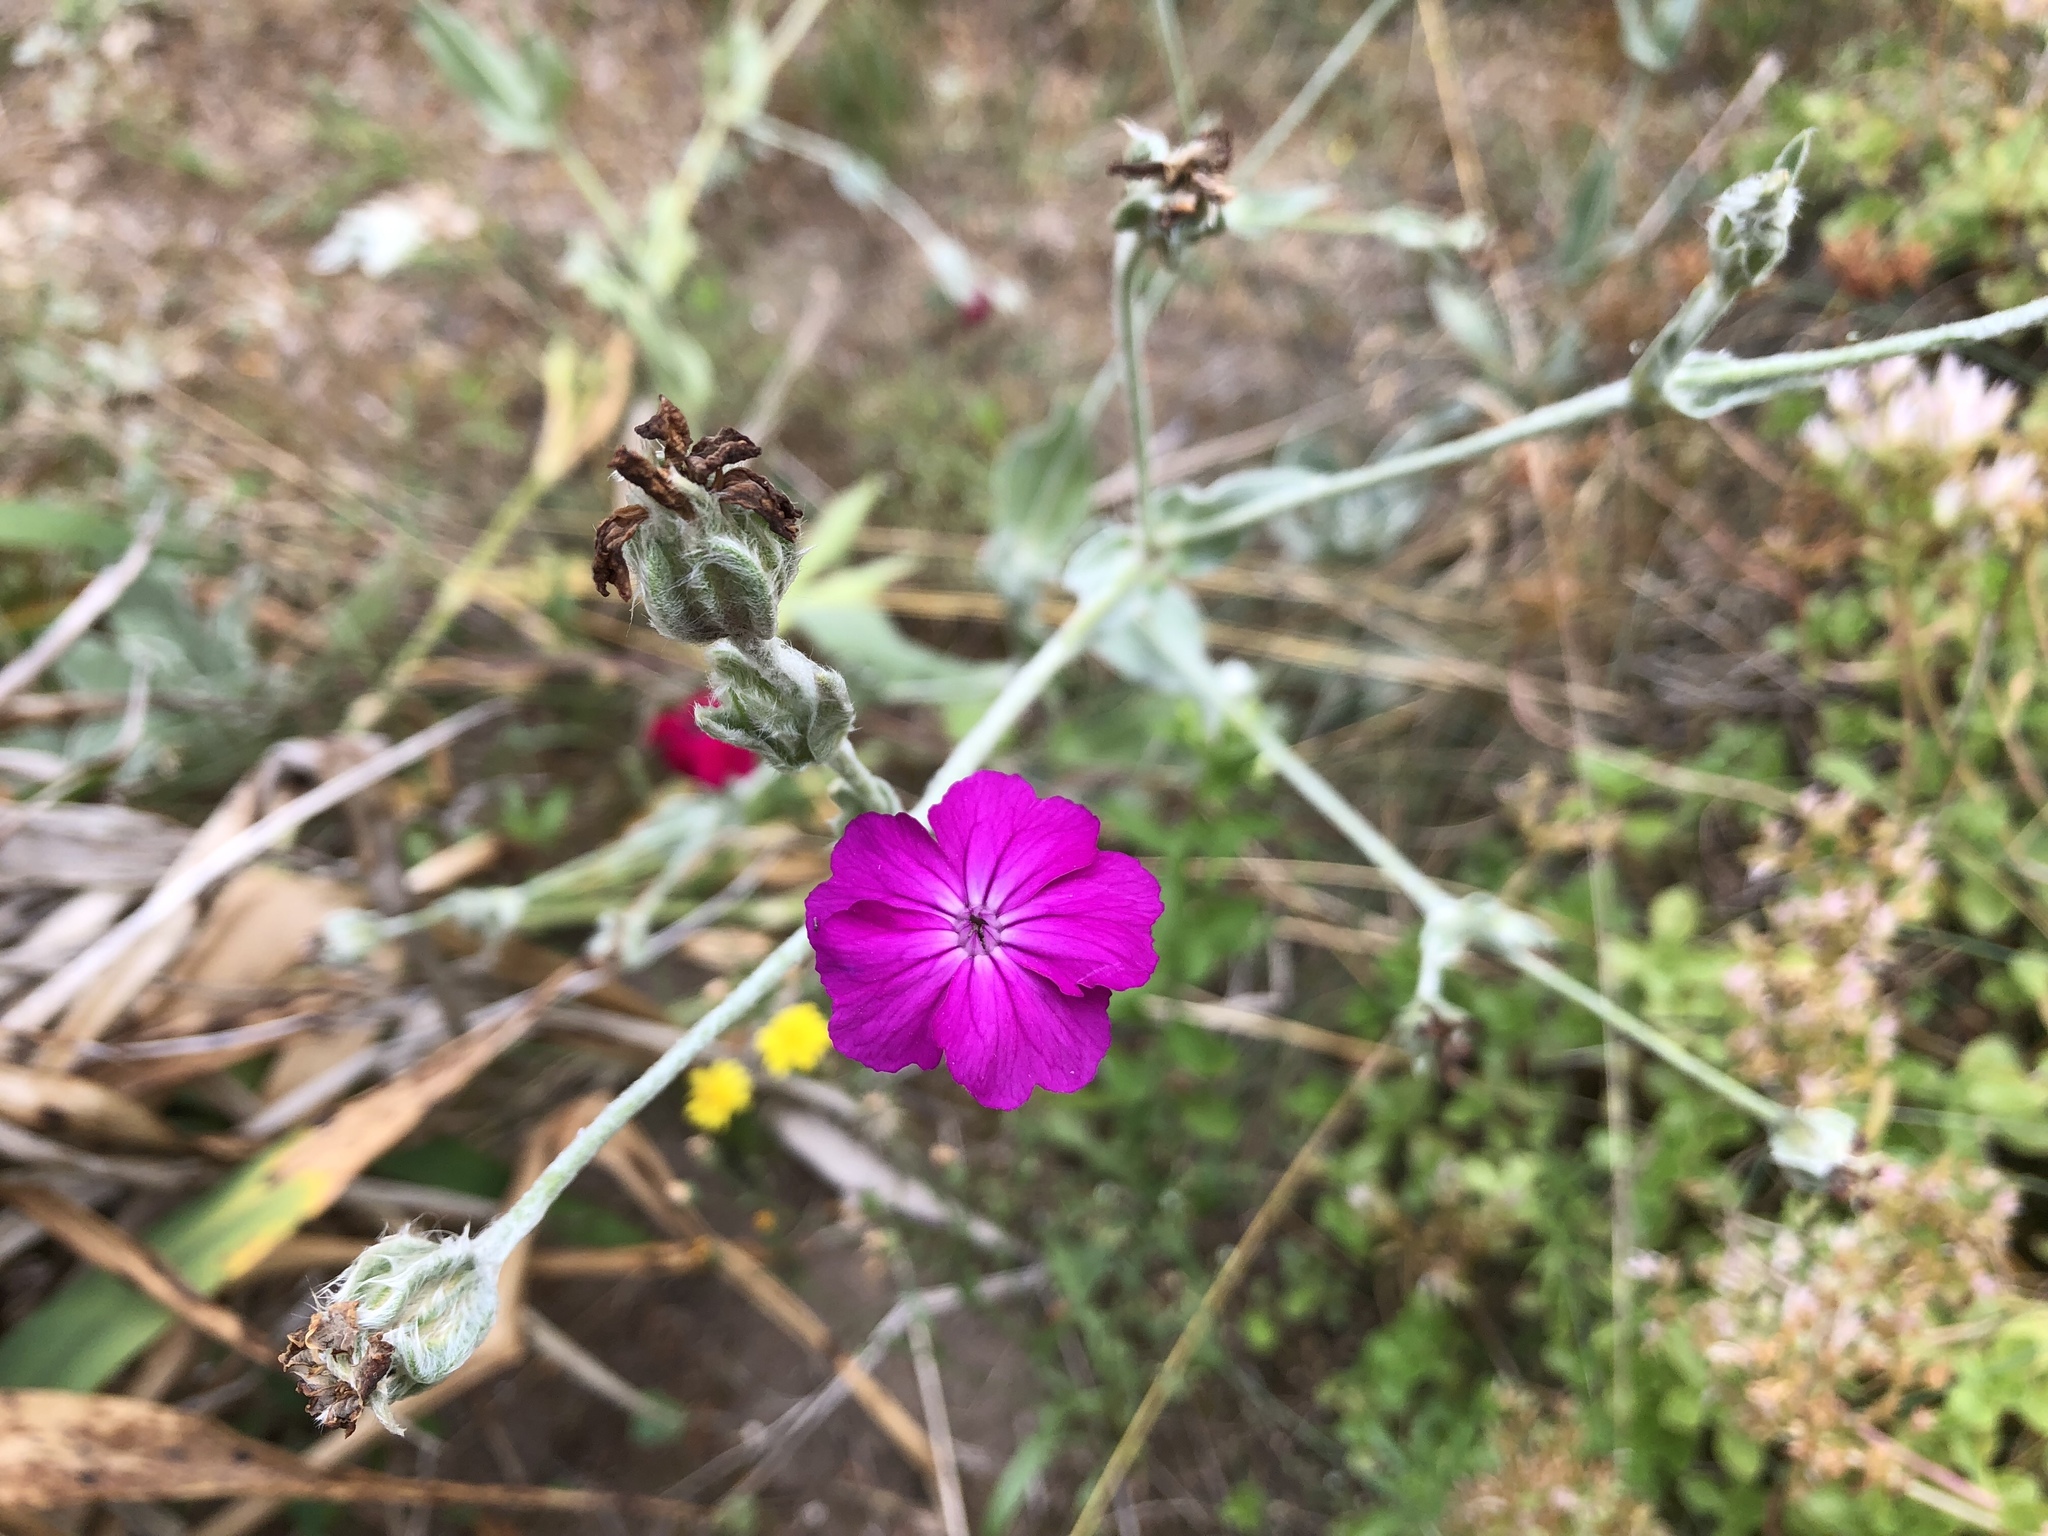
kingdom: Plantae
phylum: Tracheophyta
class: Magnoliopsida
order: Caryophyllales
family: Caryophyllaceae
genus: Silene
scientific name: Silene coronaria
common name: Rose campion
